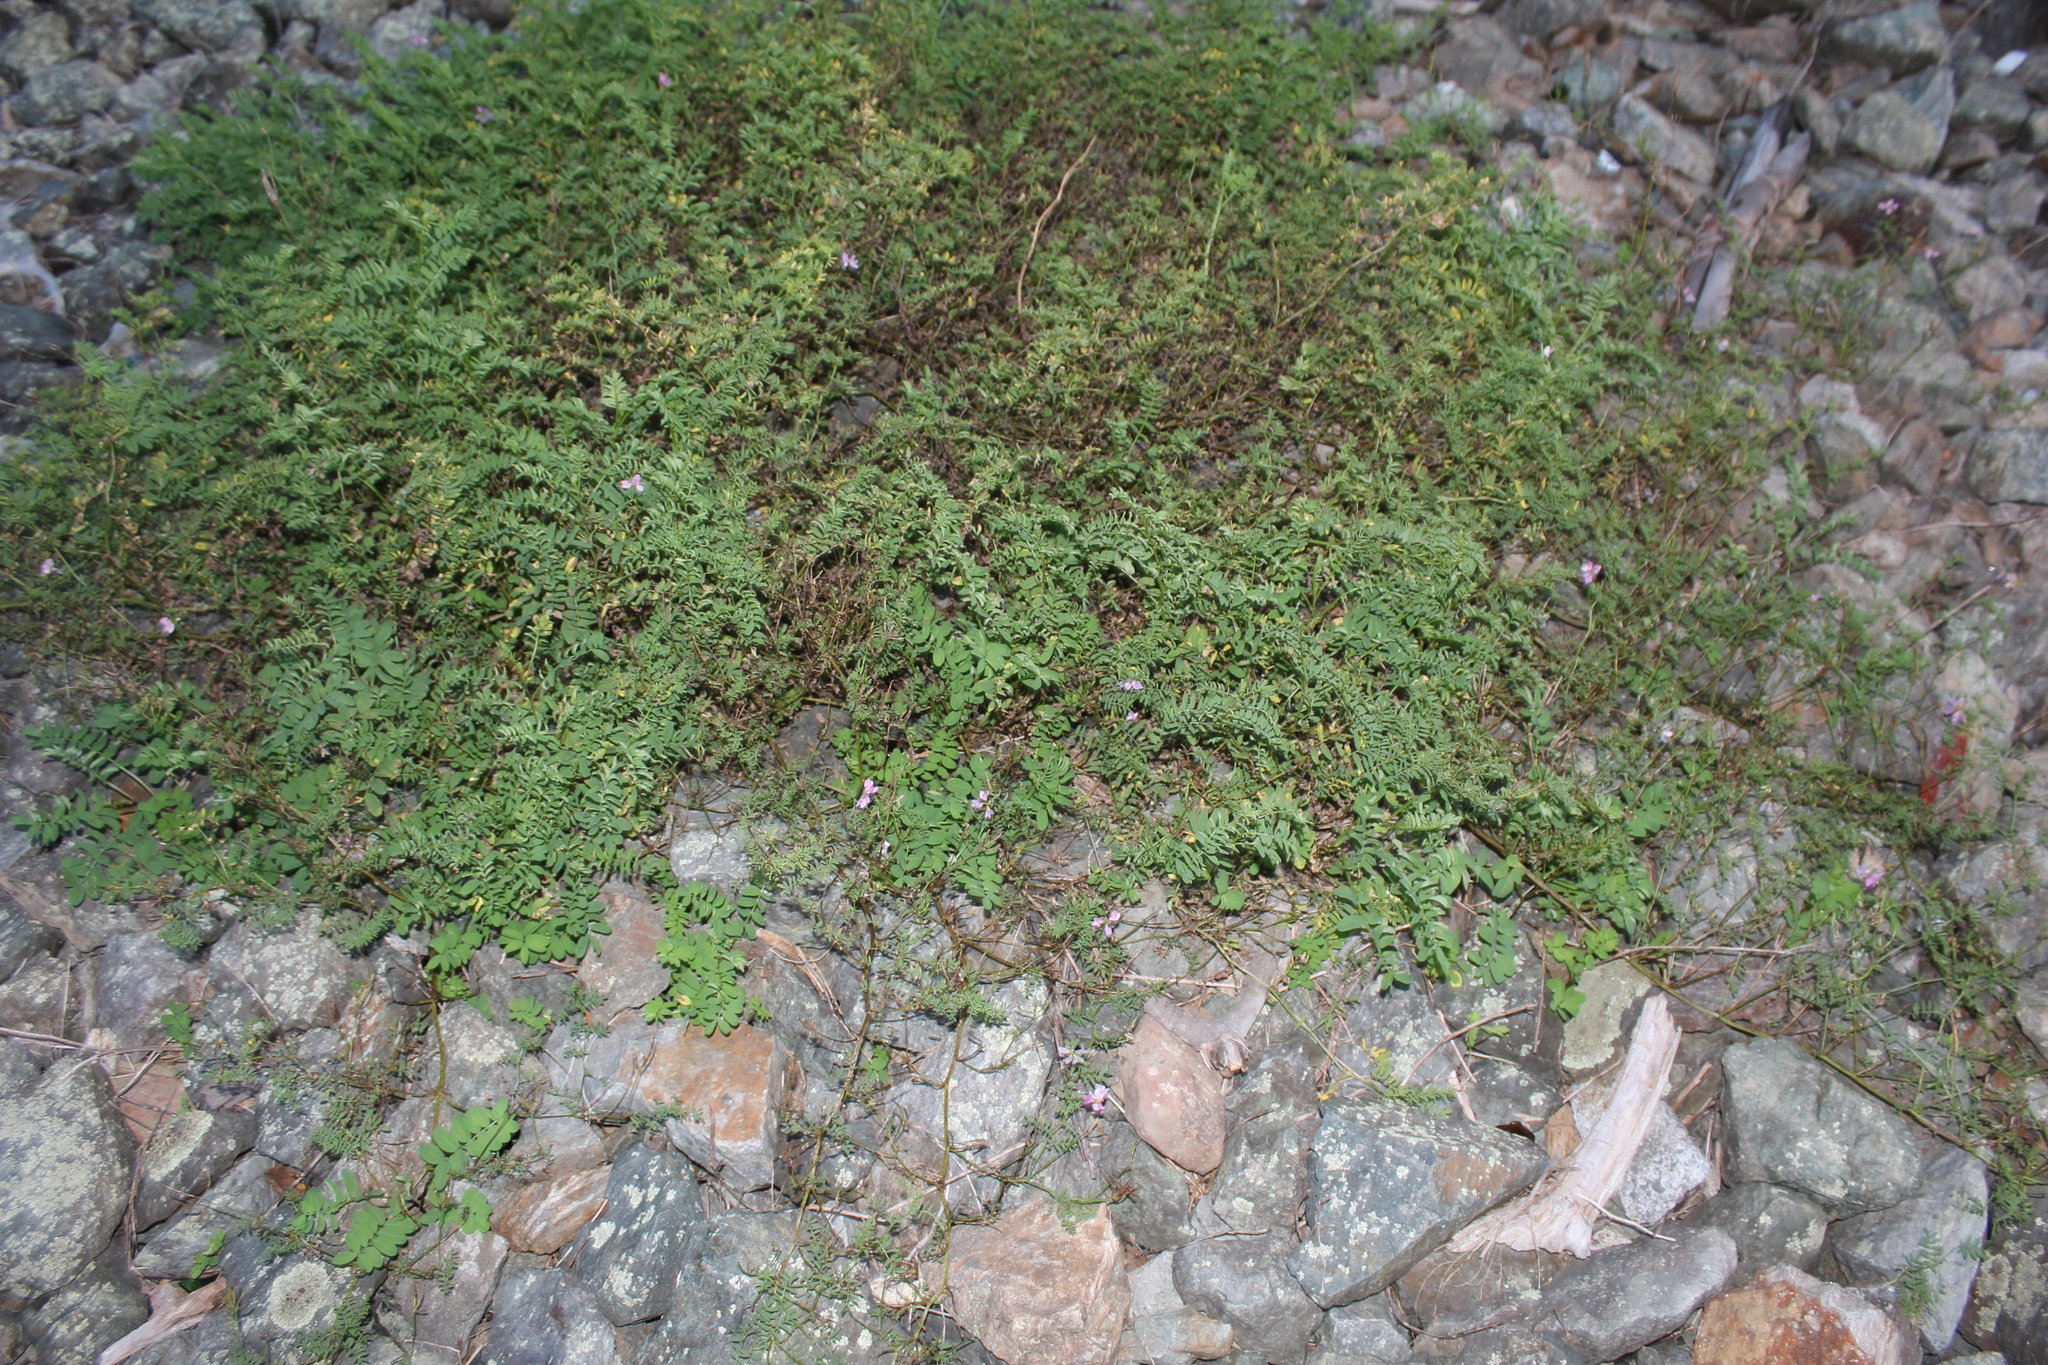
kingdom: Plantae
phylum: Tracheophyta
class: Magnoliopsida
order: Fabales
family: Fabaceae
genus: Coronilla
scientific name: Coronilla varia
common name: Crownvetch
